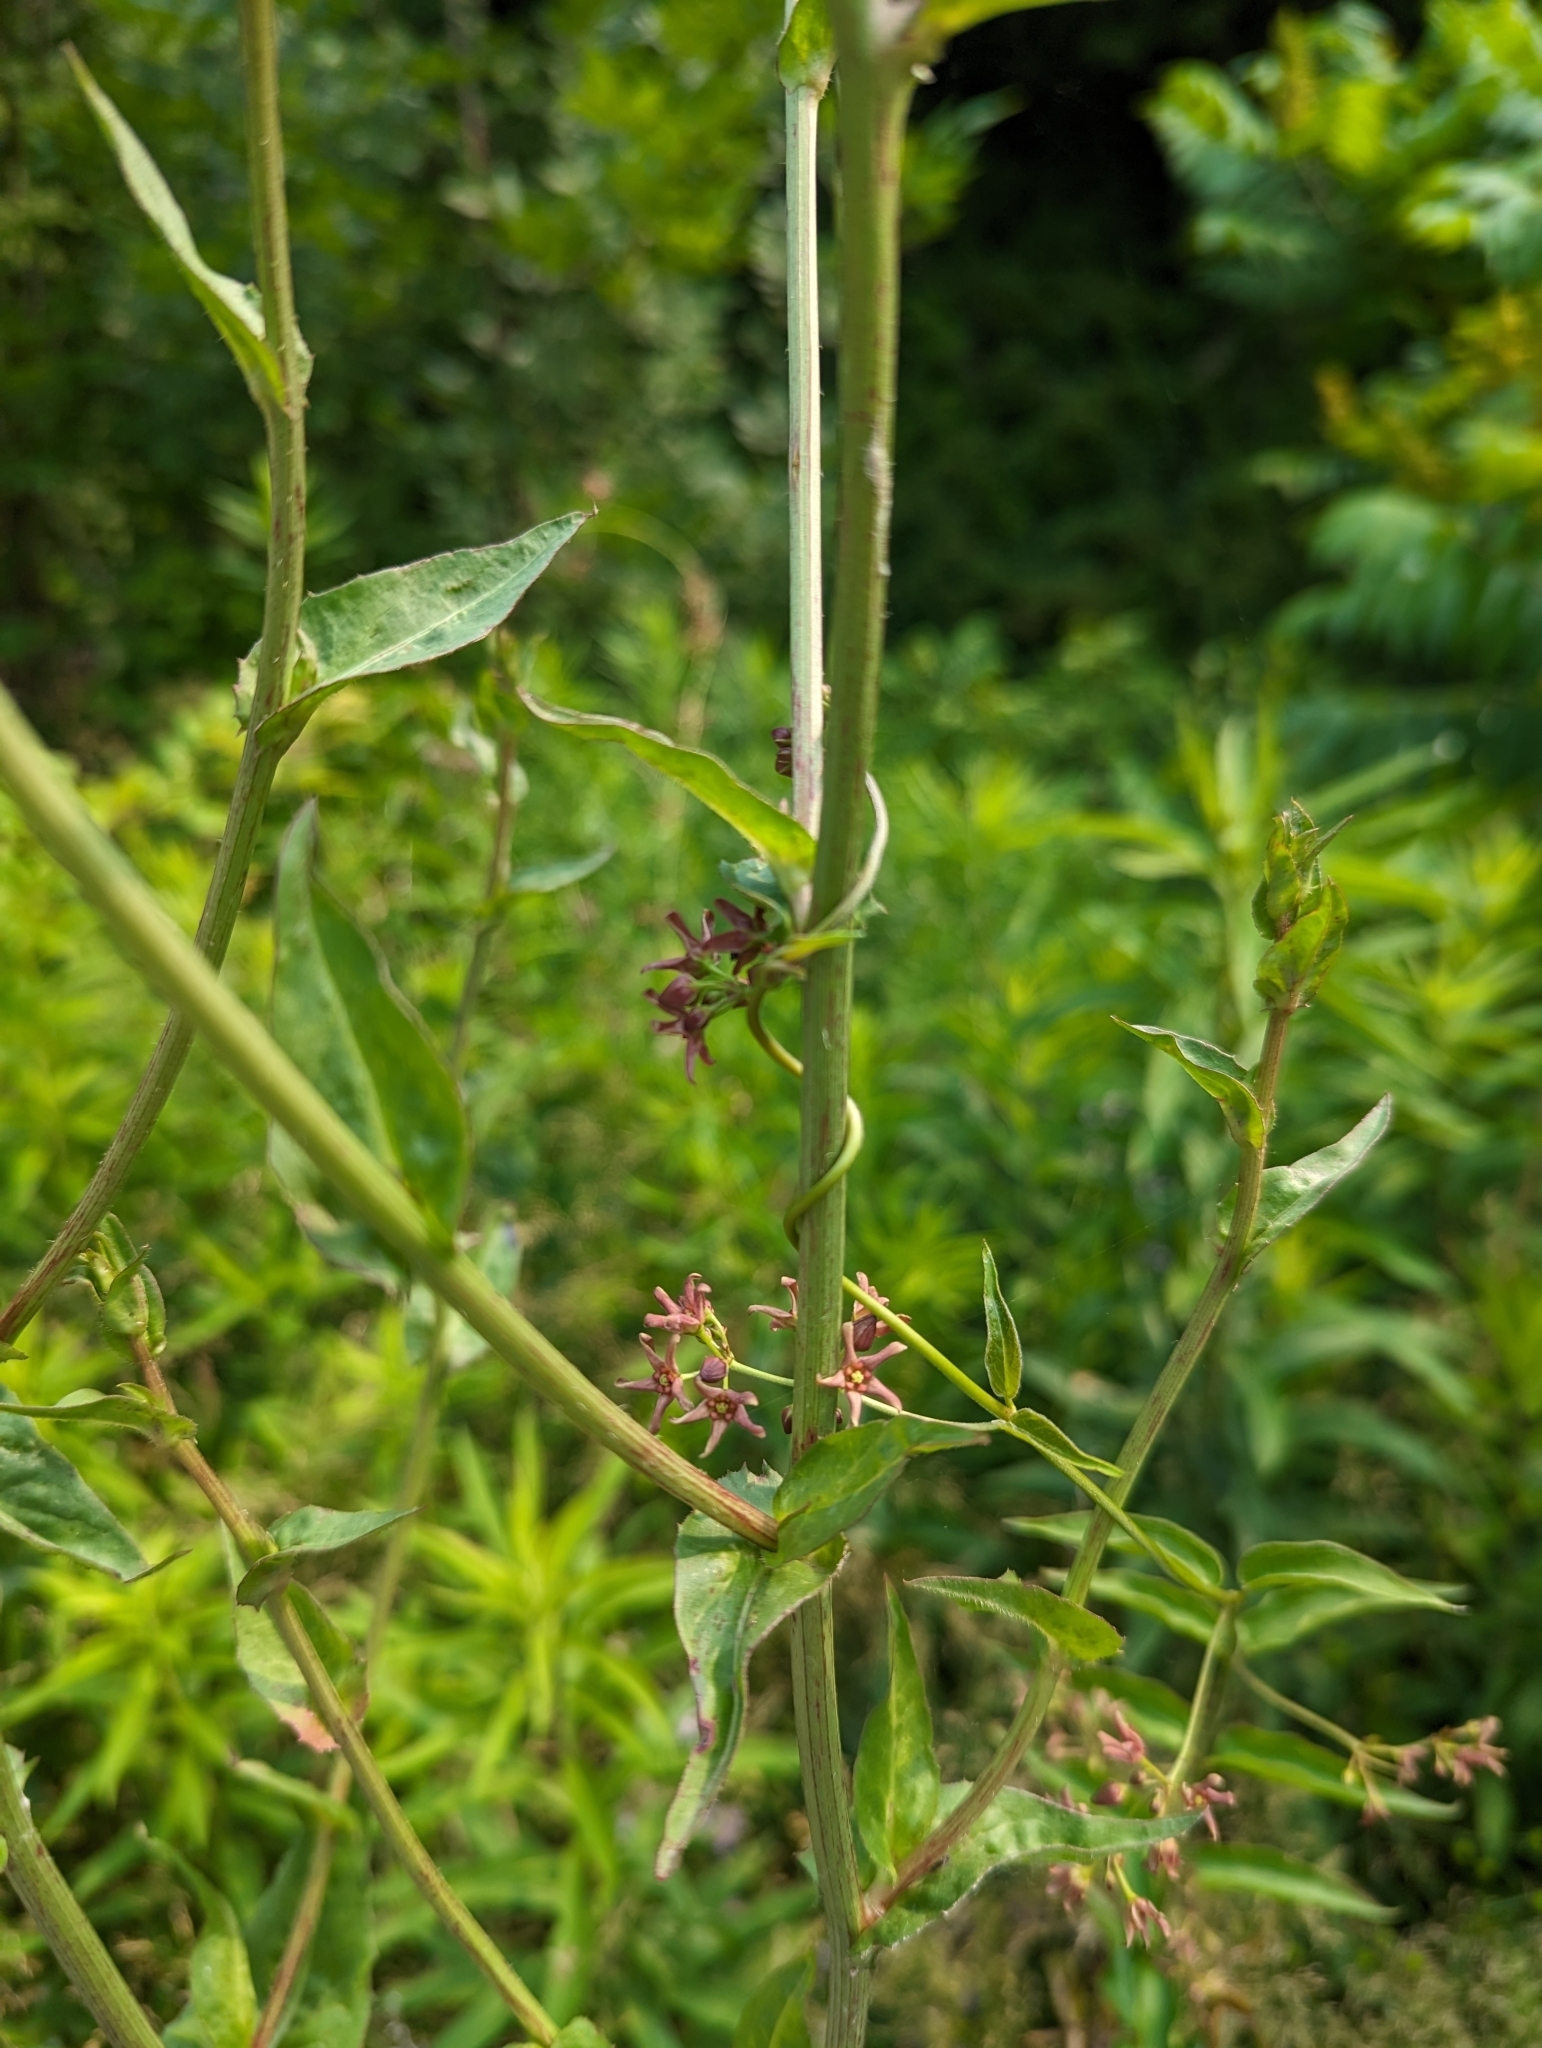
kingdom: Plantae
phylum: Tracheophyta
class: Magnoliopsida
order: Gentianales
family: Apocynaceae
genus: Vincetoxicum
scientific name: Vincetoxicum rossicum
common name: Dog-strangling vine
